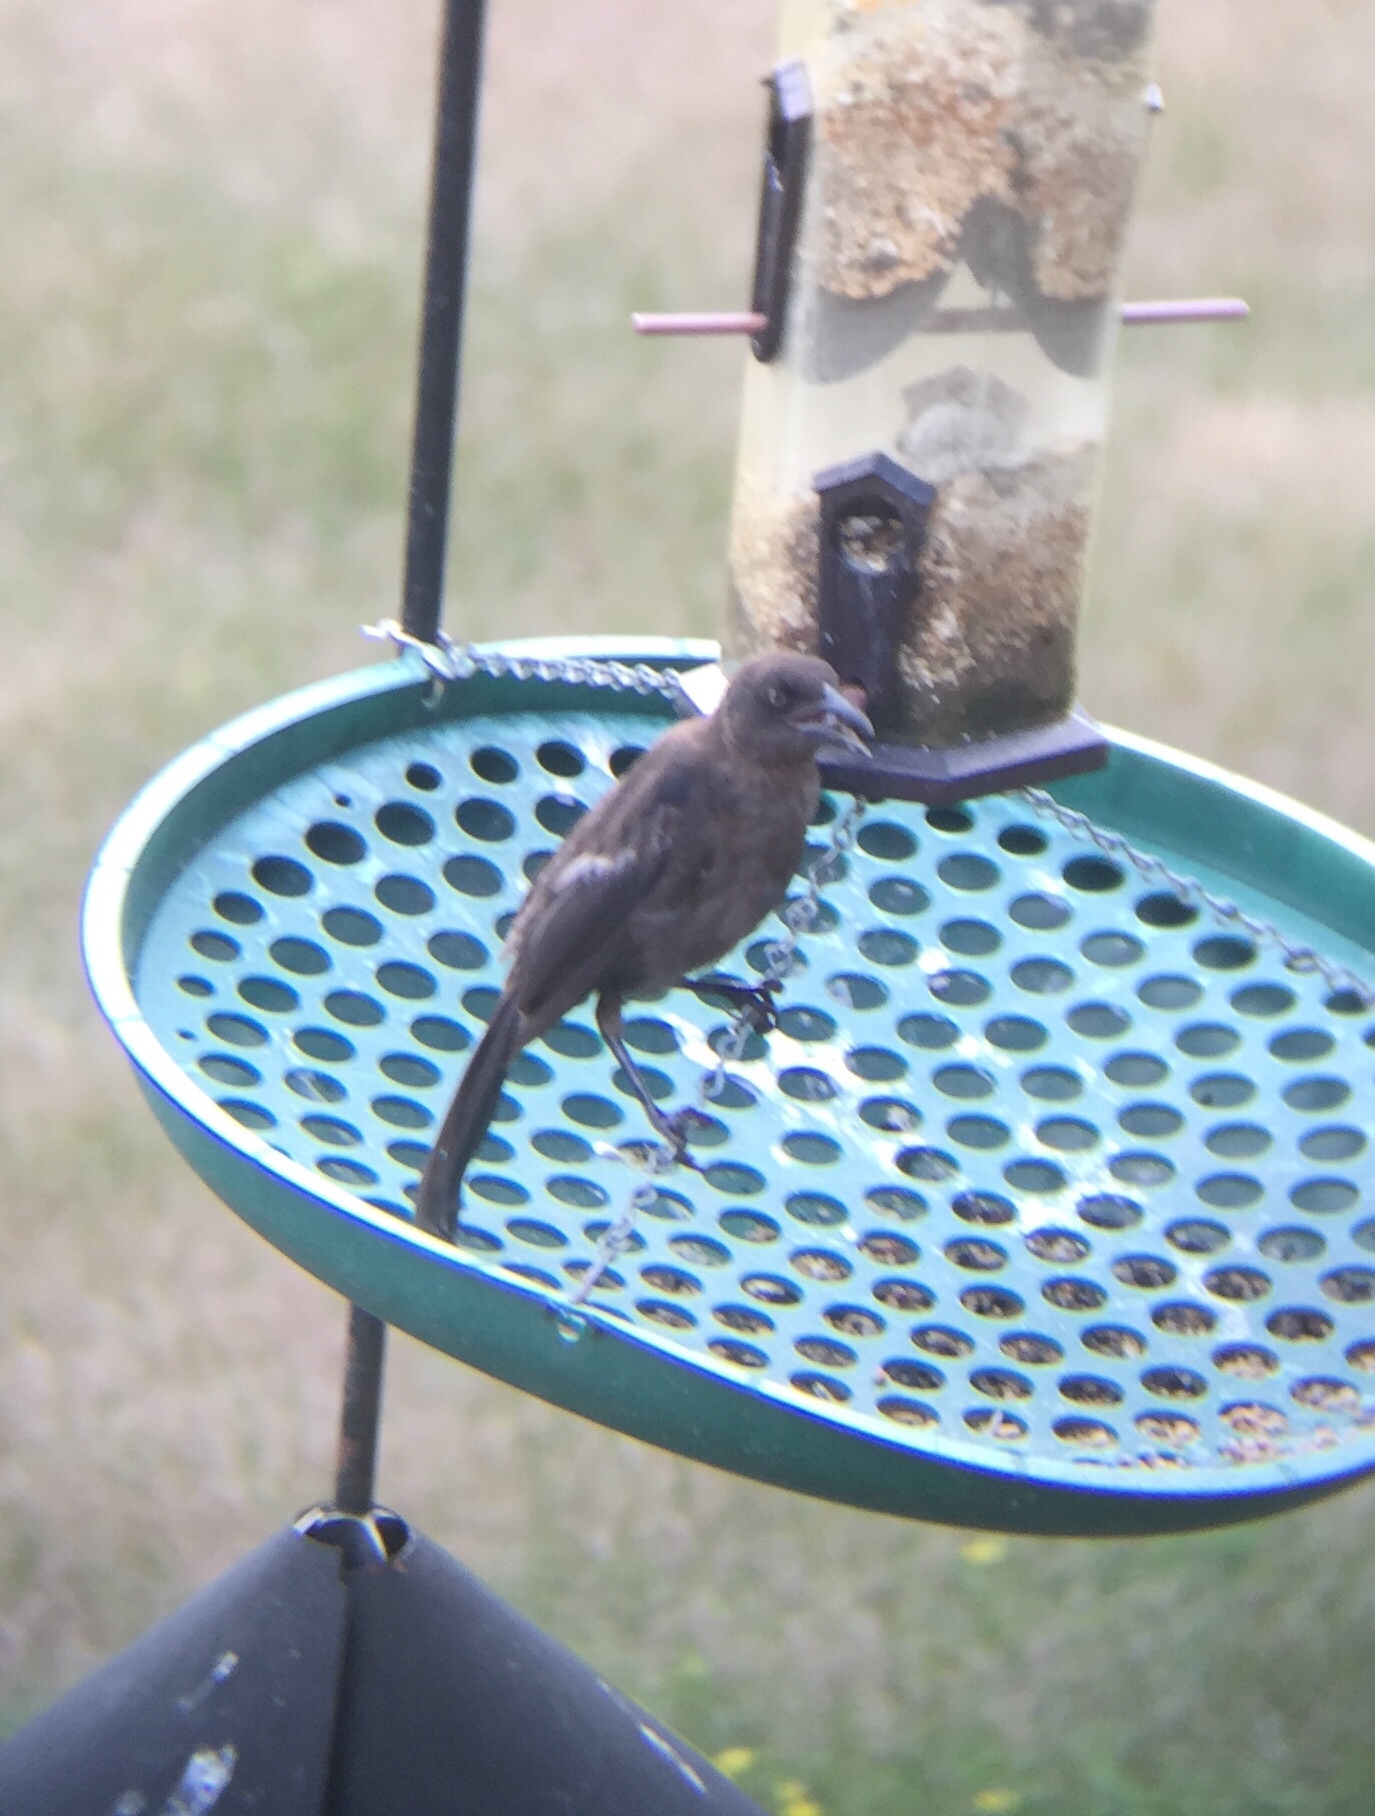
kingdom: Animalia
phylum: Chordata
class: Aves
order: Passeriformes
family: Icteridae
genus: Quiscalus
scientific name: Quiscalus quiscula
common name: Common grackle
